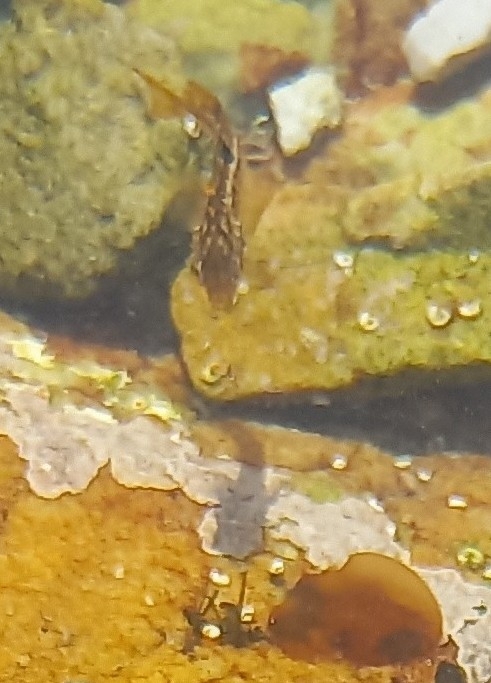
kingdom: Animalia
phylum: Chordata
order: Perciformes
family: Clinidae
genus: Clinus
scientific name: Clinus superciliosus
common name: Super klipfish
